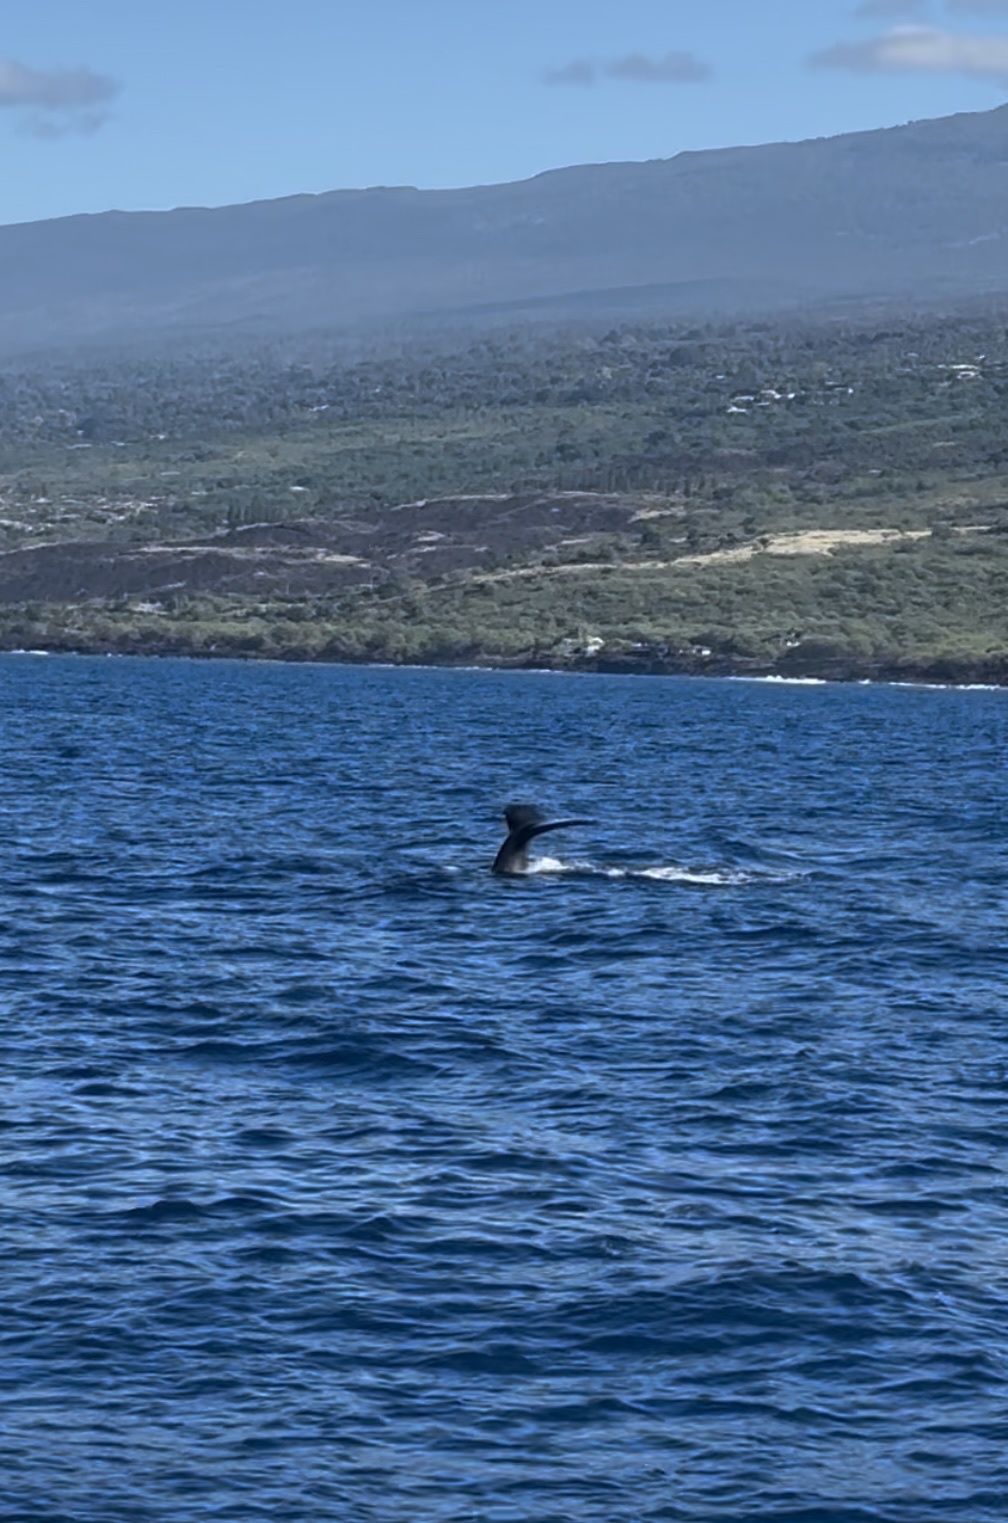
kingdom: Animalia
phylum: Chordata
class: Mammalia
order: Cetacea
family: Balaenopteridae
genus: Megaptera
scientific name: Megaptera novaeangliae
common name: Humpback whale
